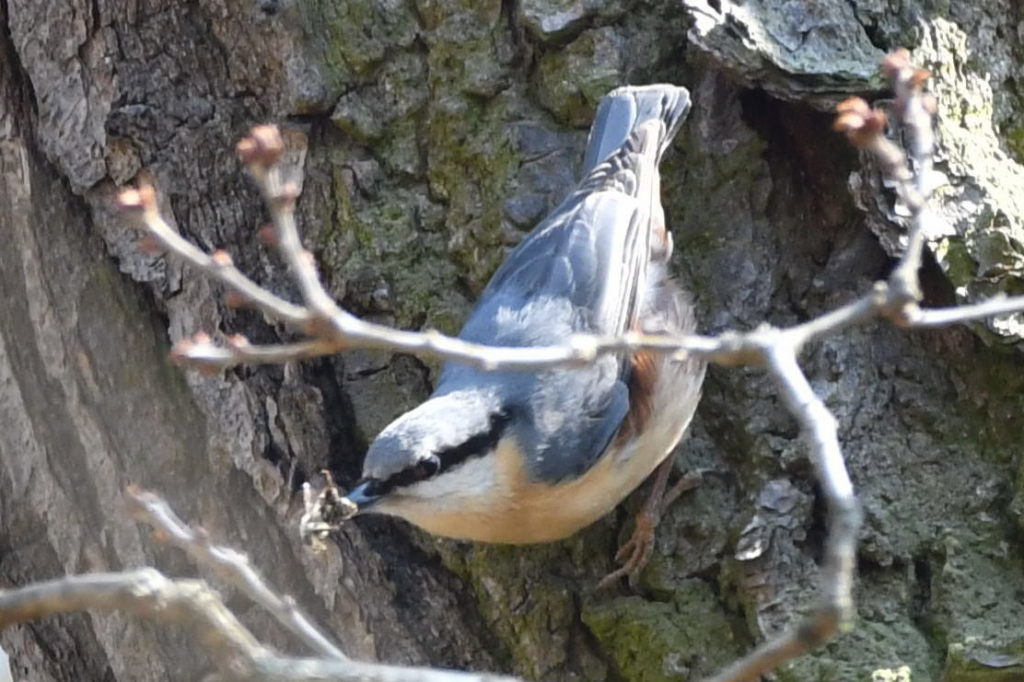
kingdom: Animalia
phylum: Chordata
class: Aves
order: Passeriformes
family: Sittidae
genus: Sitta
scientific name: Sitta europaea
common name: Eurasian nuthatch
